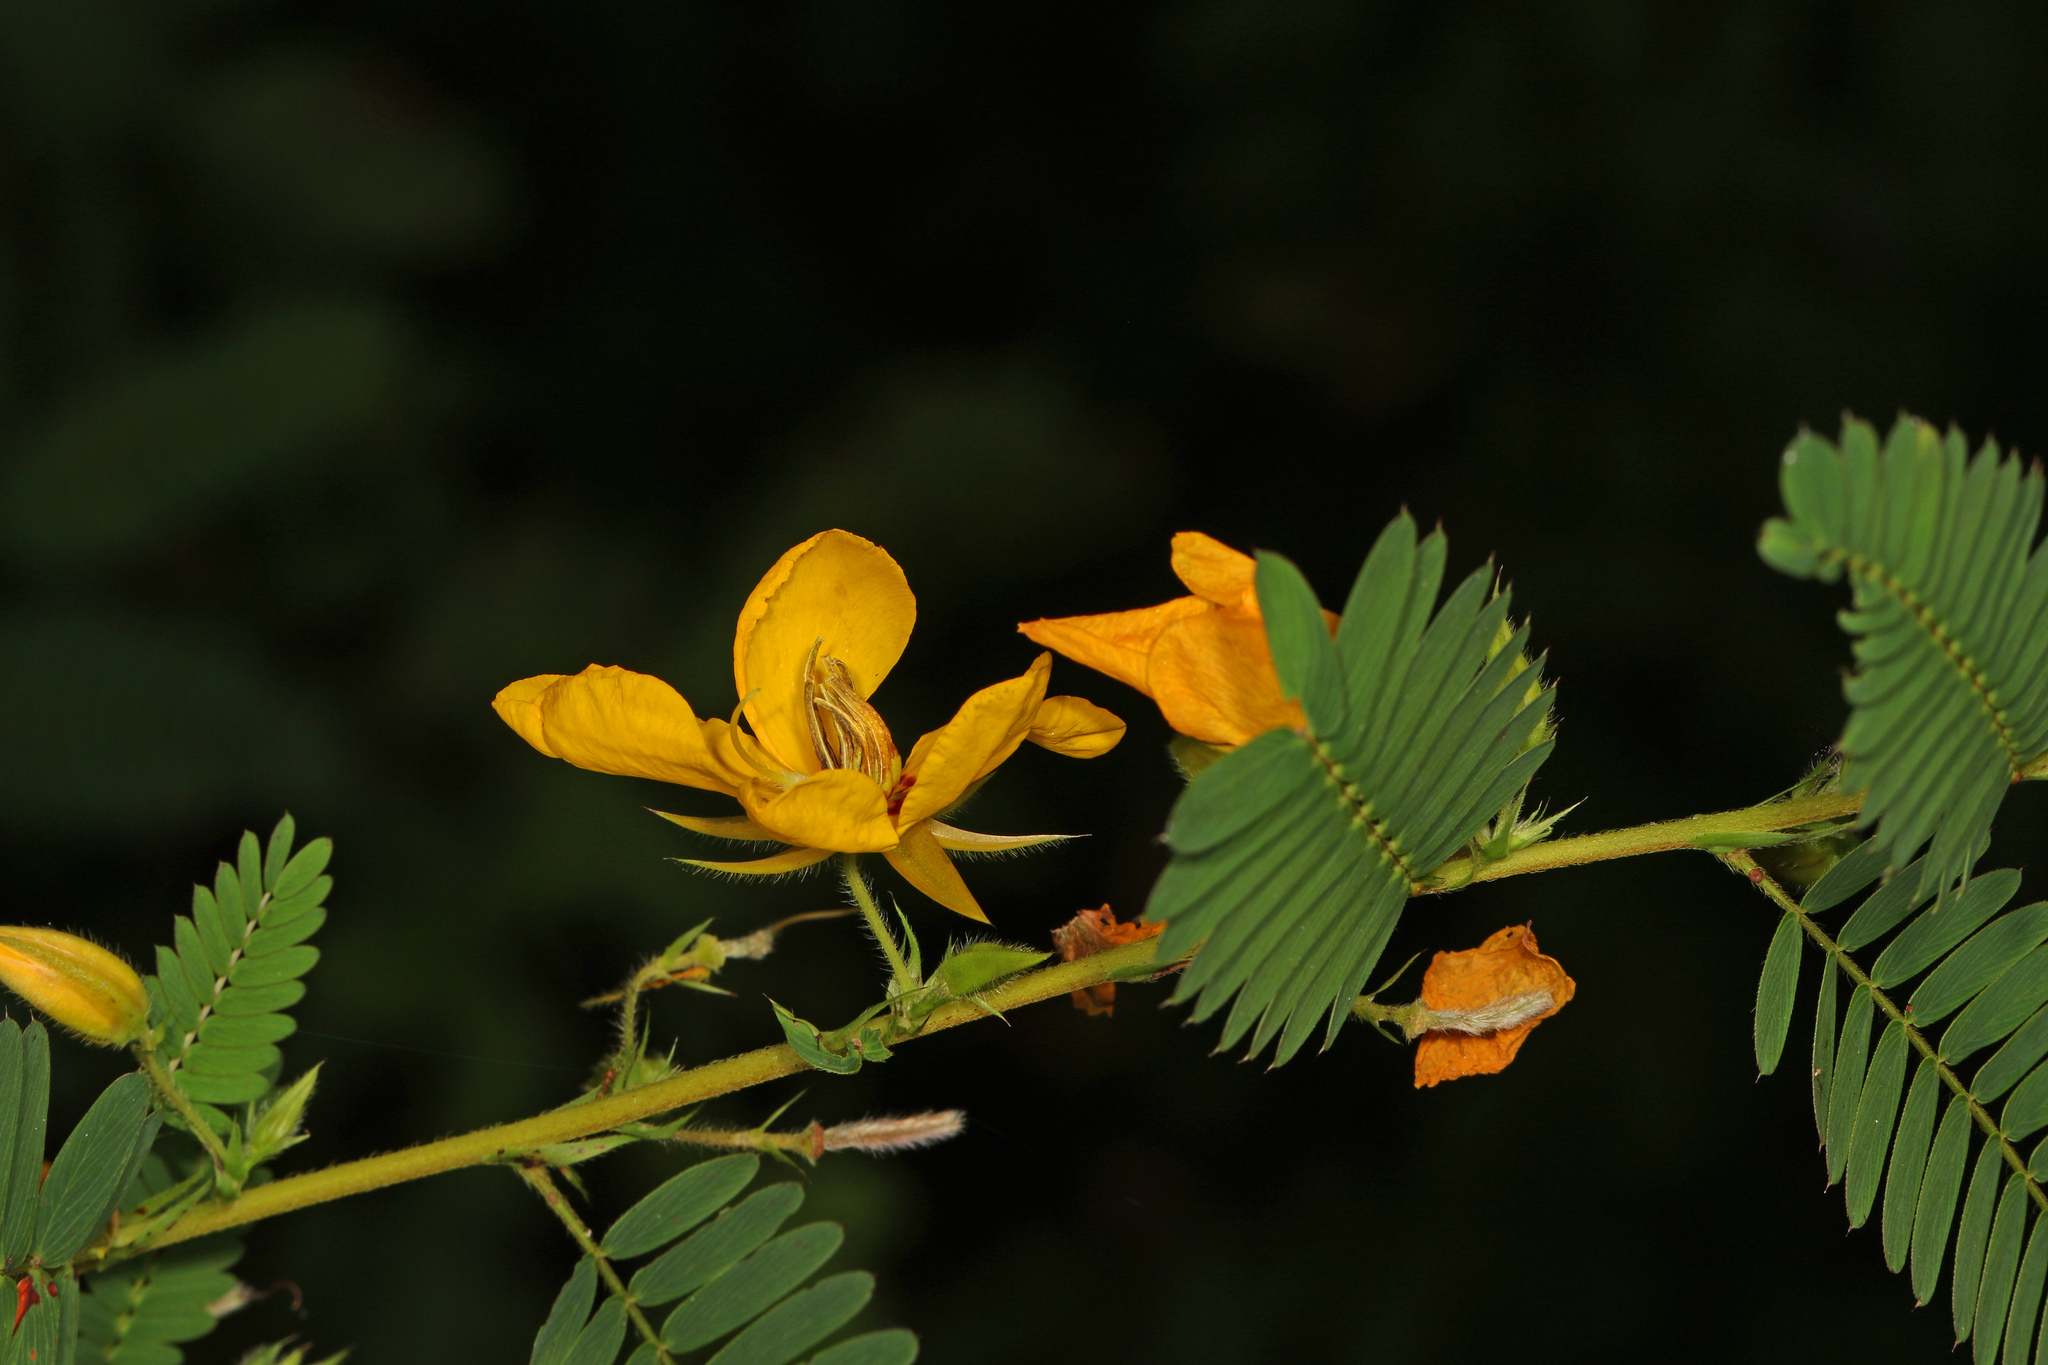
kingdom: Plantae
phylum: Tracheophyta
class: Magnoliopsida
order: Fabales
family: Fabaceae
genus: Chamaecrista
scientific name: Chamaecrista fasciculata
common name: Golden cassia
